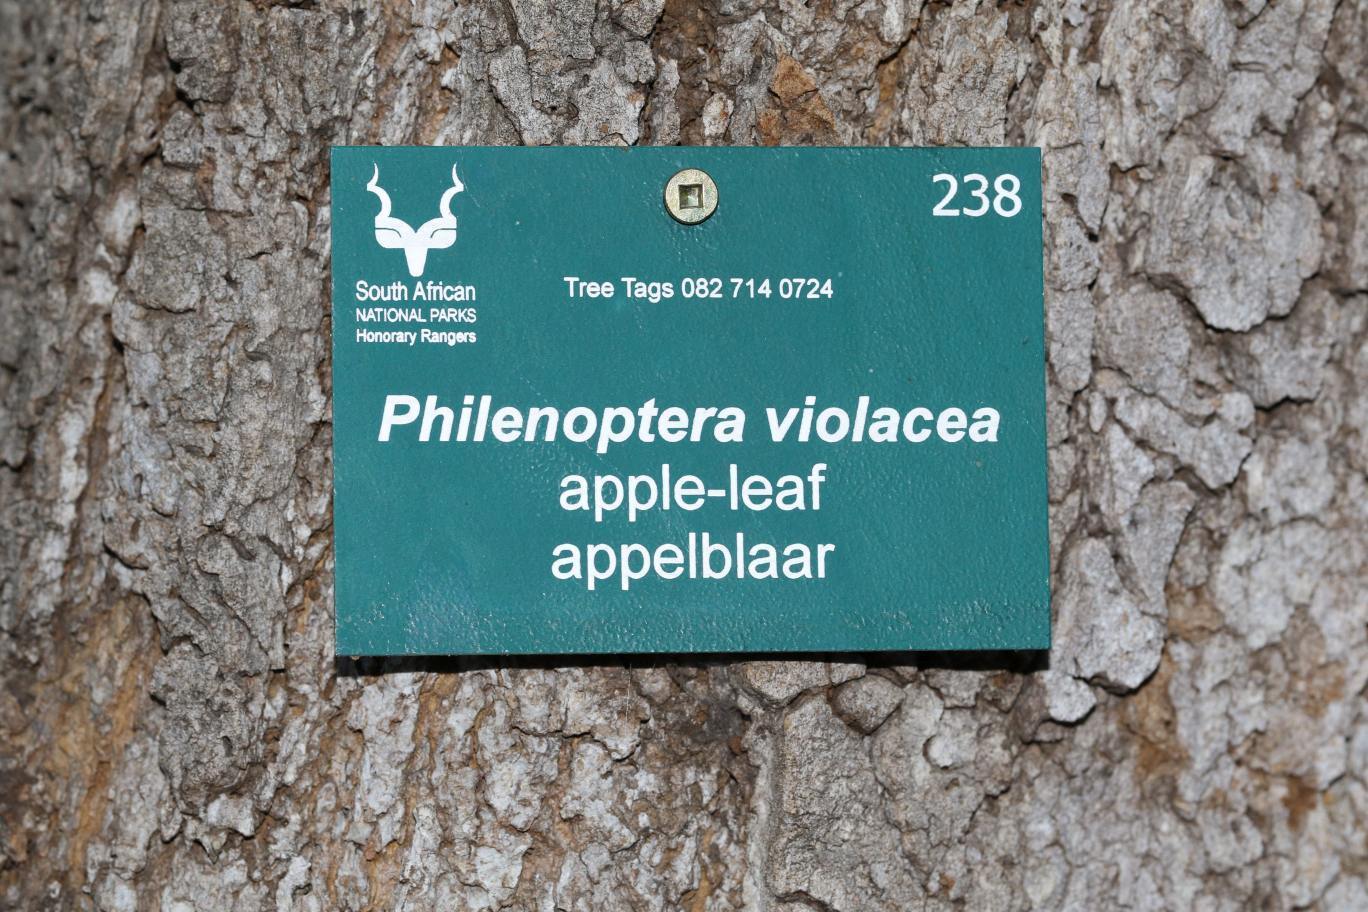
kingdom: Plantae
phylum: Tracheophyta
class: Magnoliopsida
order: Fabales
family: Fabaceae
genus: Philenoptera
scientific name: Philenoptera violacea
